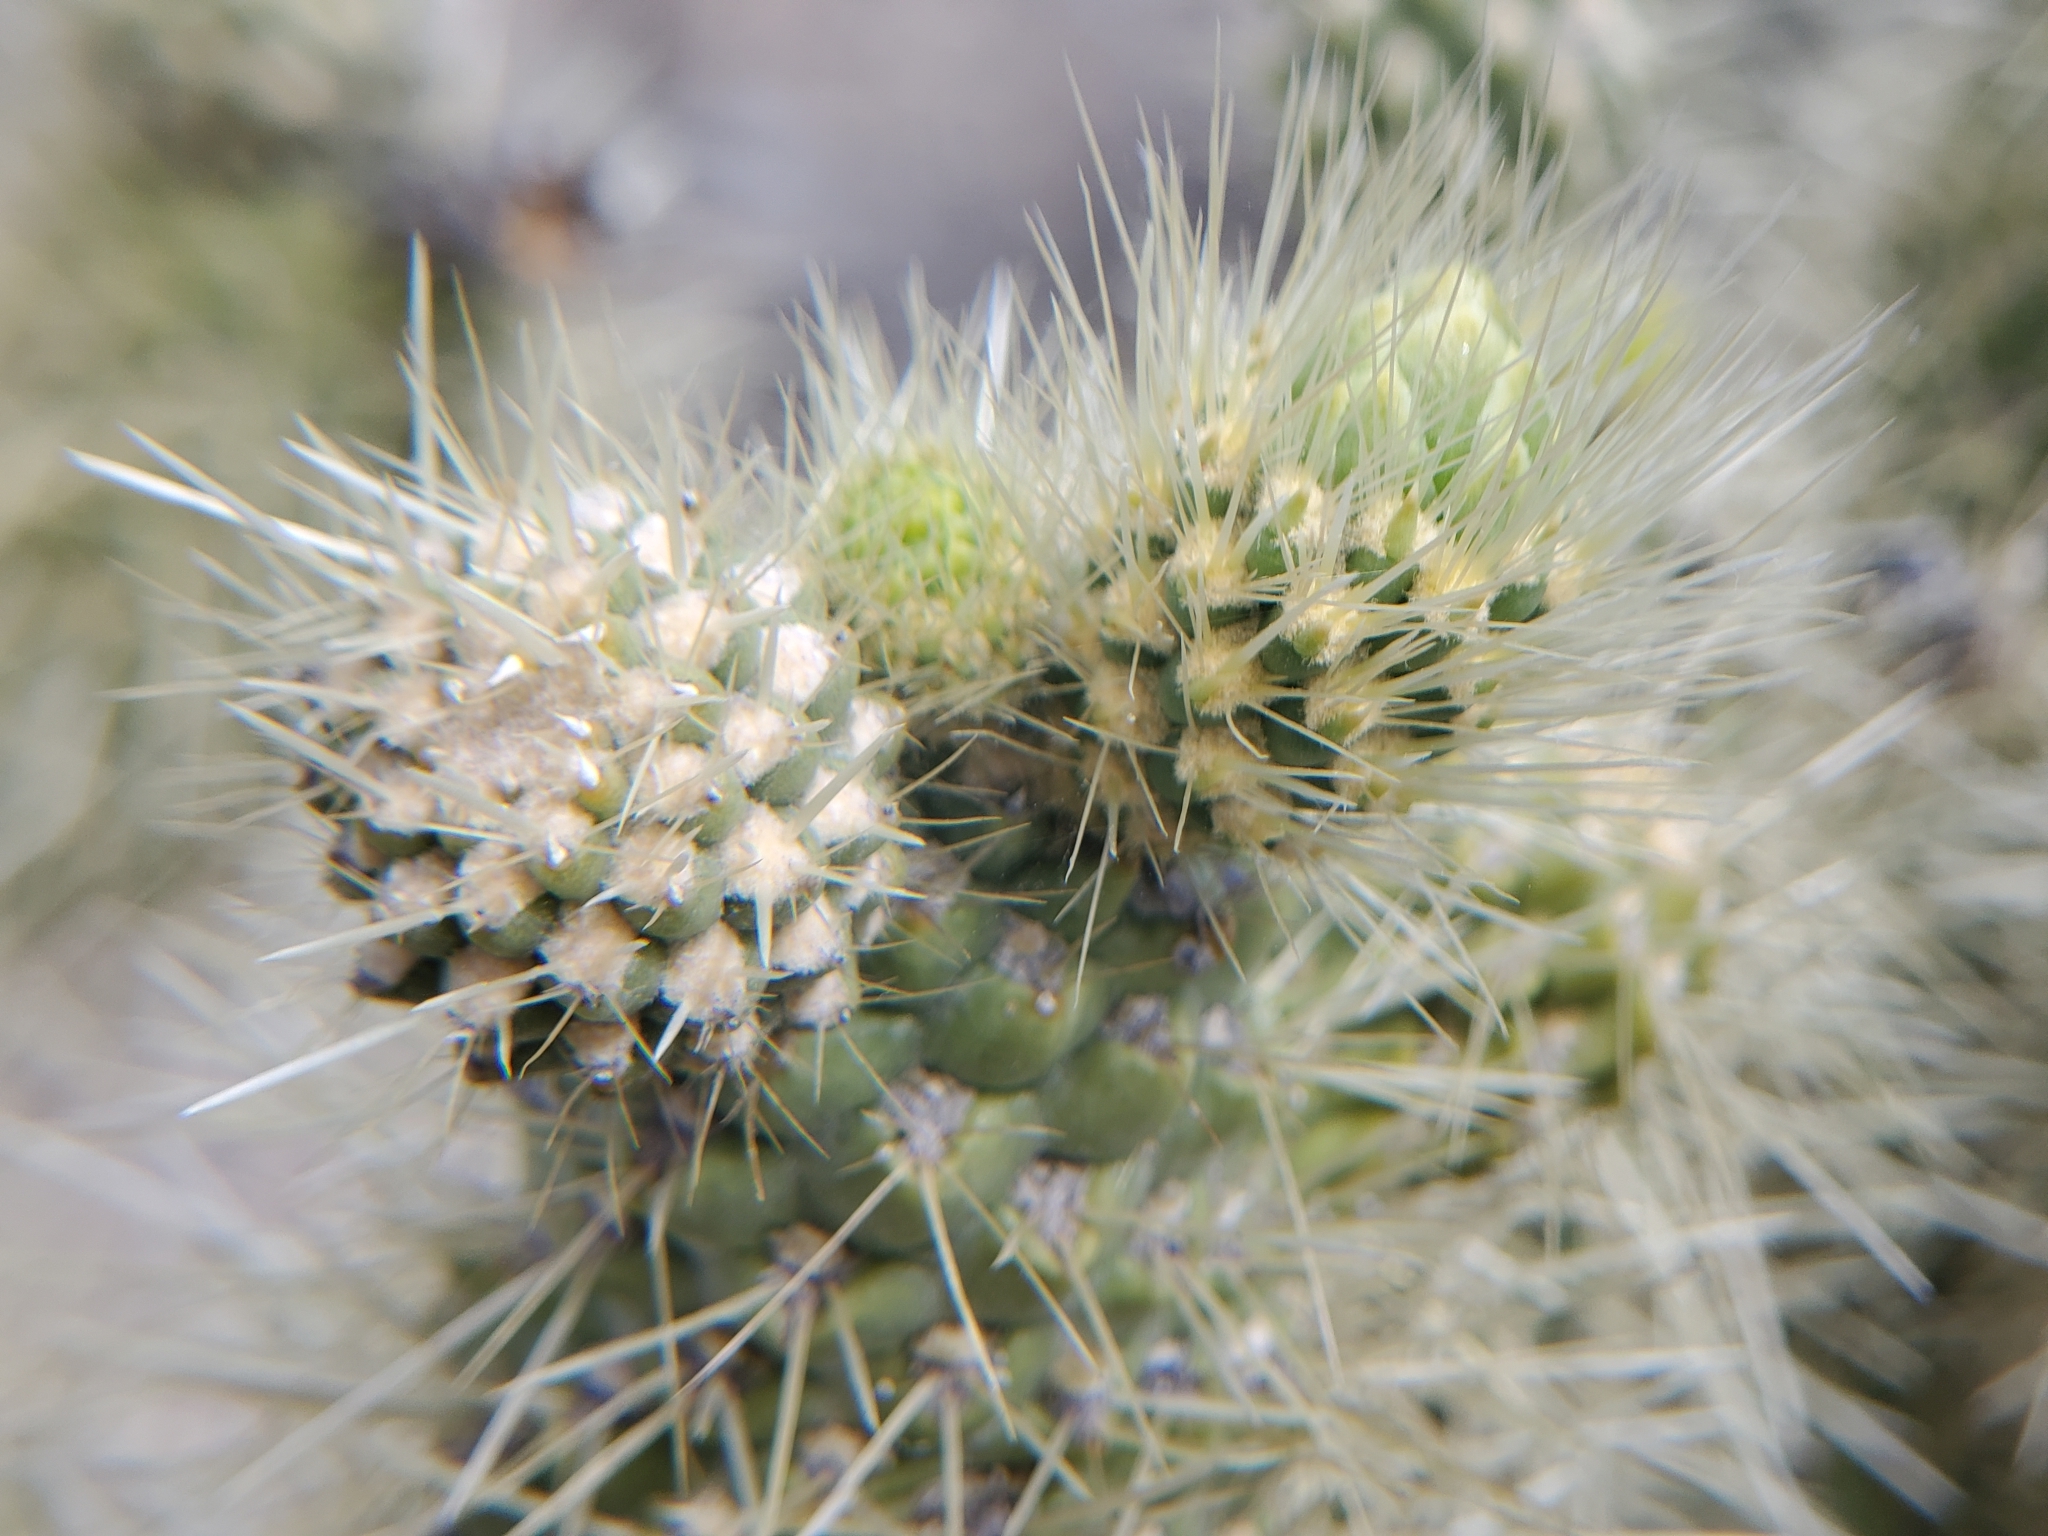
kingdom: Plantae
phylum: Tracheophyta
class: Magnoliopsida
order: Caryophyllales
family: Cactaceae
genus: Cylindropuntia
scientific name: Cylindropuntia fosbergii
